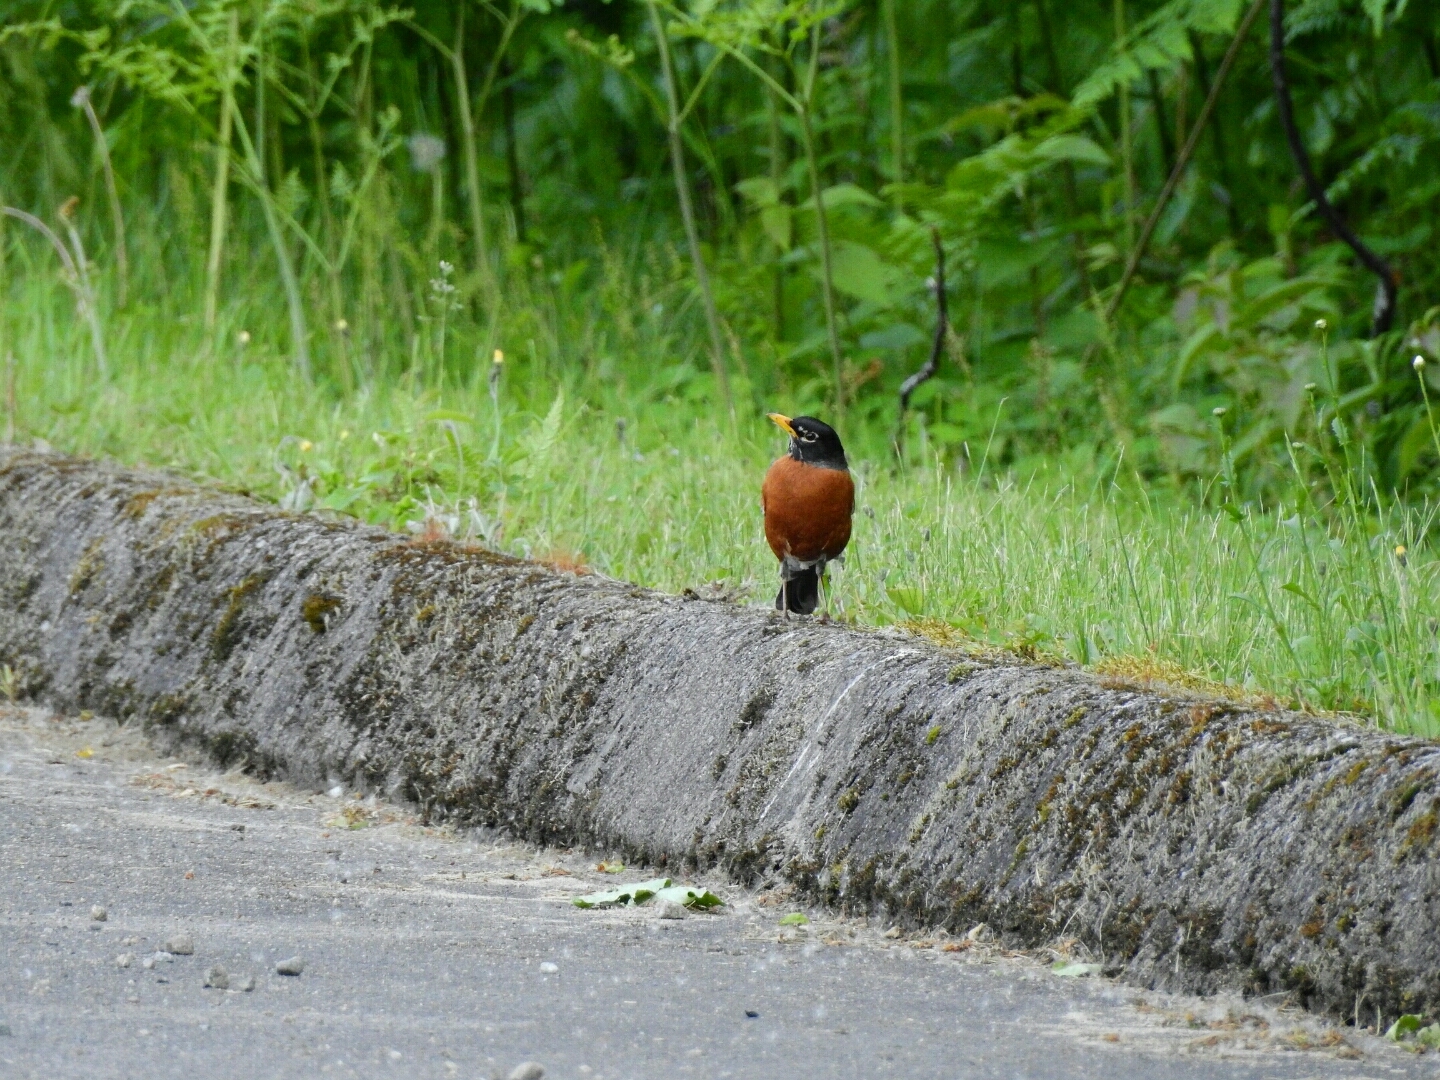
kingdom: Animalia
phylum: Chordata
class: Aves
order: Passeriformes
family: Turdidae
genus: Turdus
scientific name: Turdus migratorius
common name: American robin
